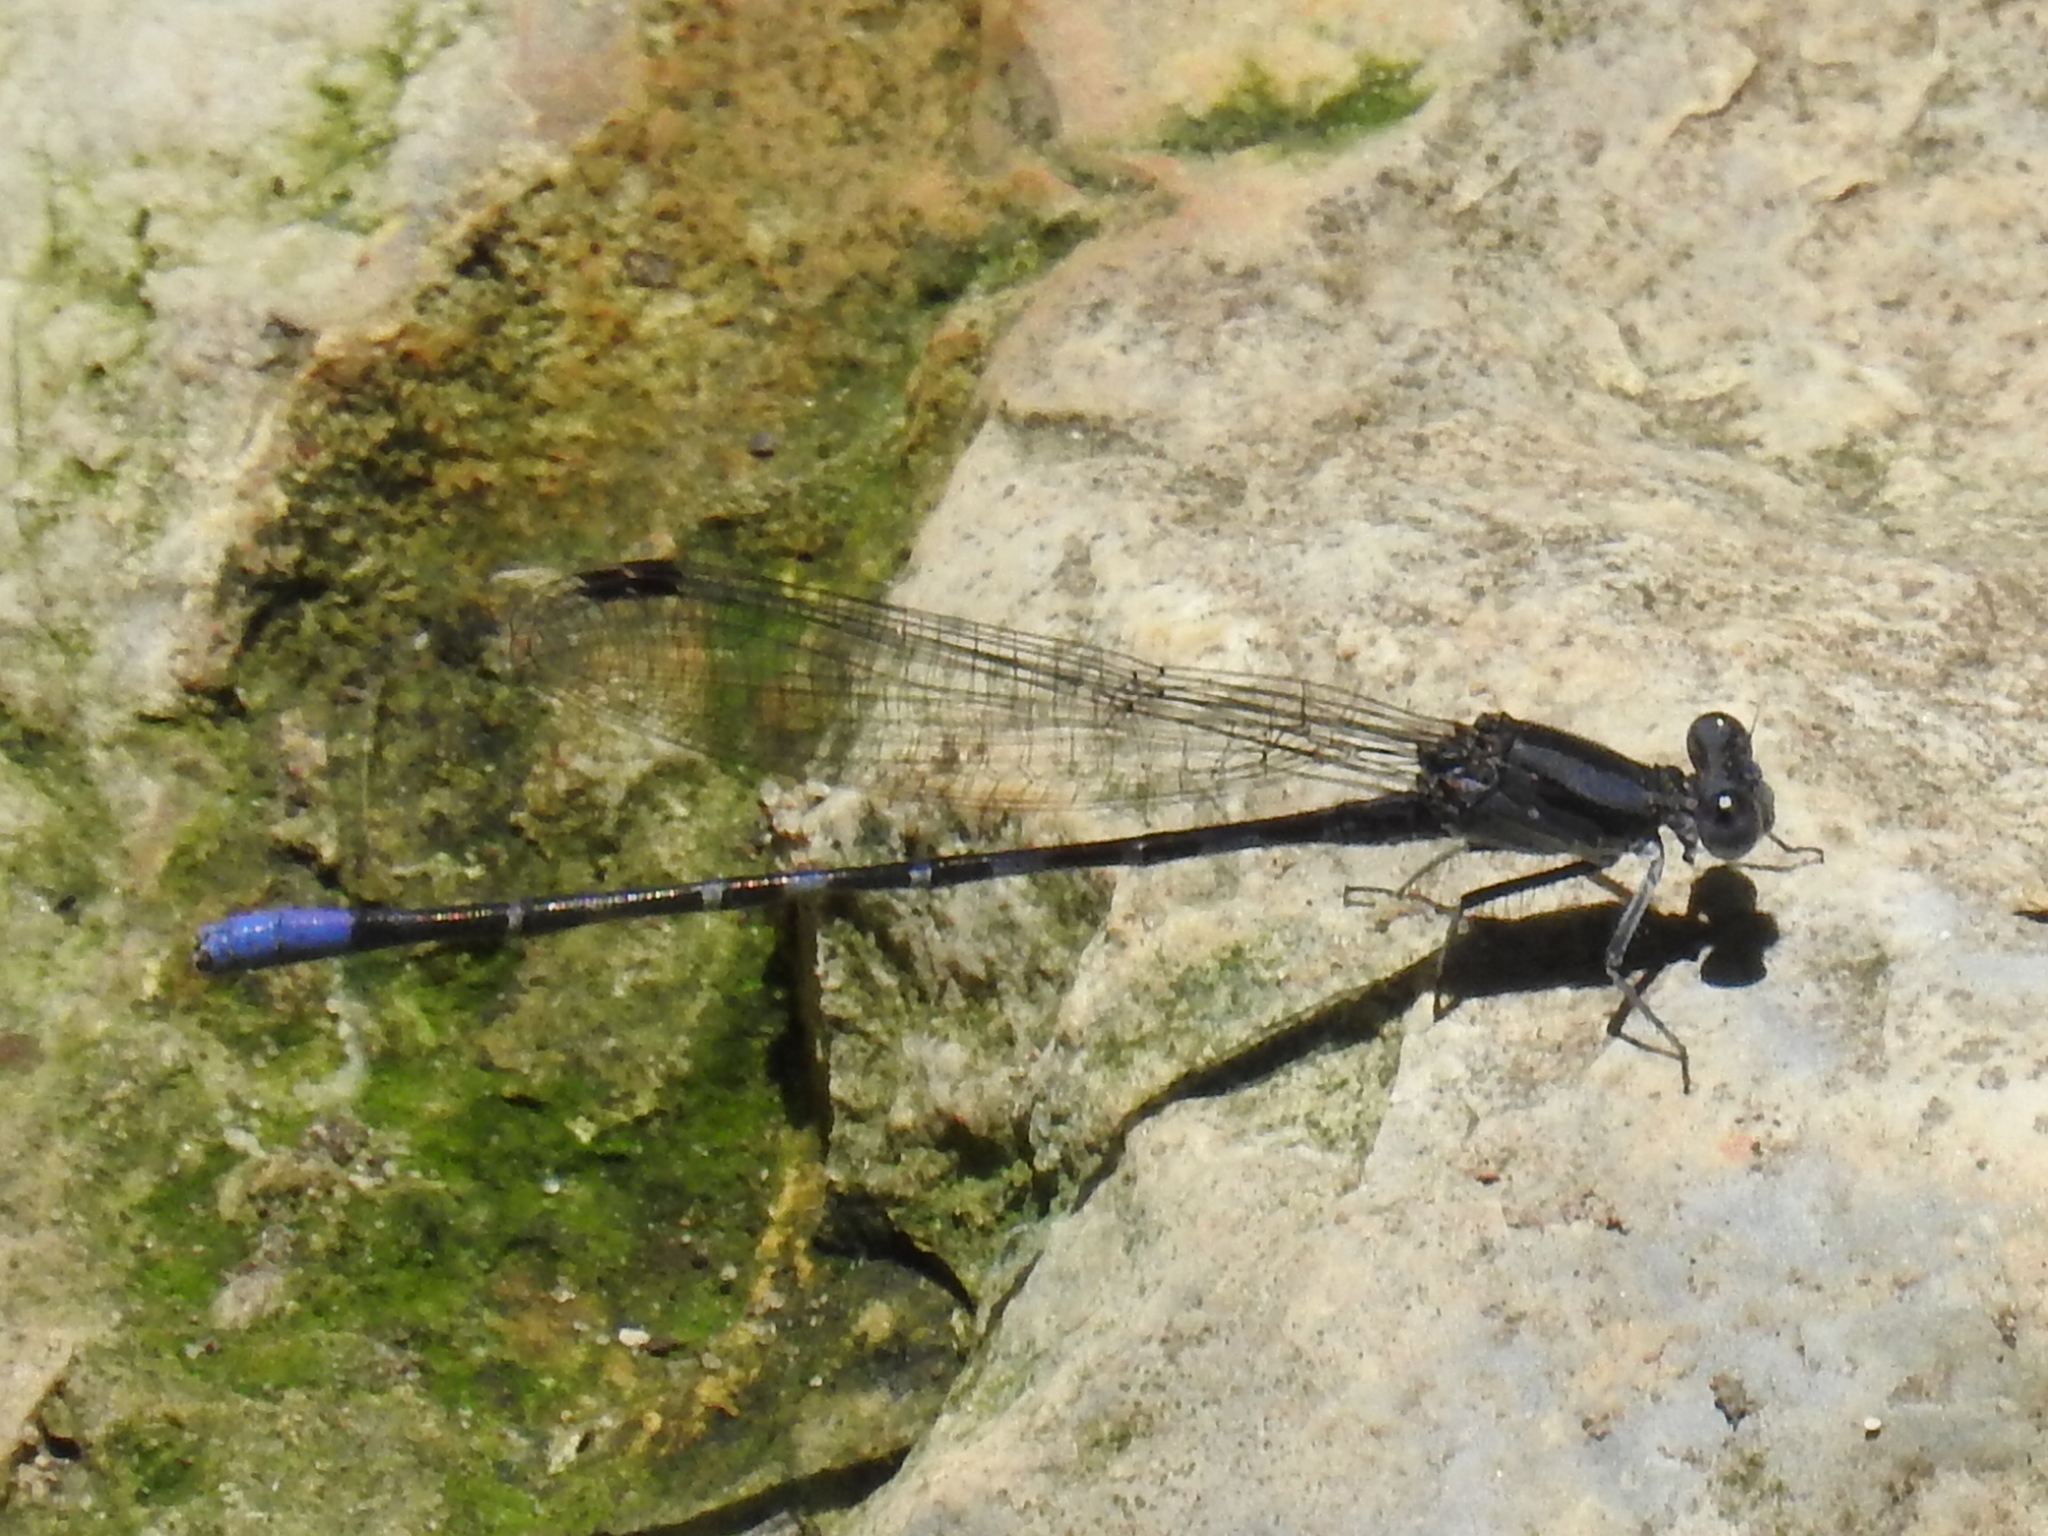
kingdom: Animalia
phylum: Arthropoda
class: Insecta
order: Odonata
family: Coenagrionidae
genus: Argia
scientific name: Argia immunda
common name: Kiowa dancer
